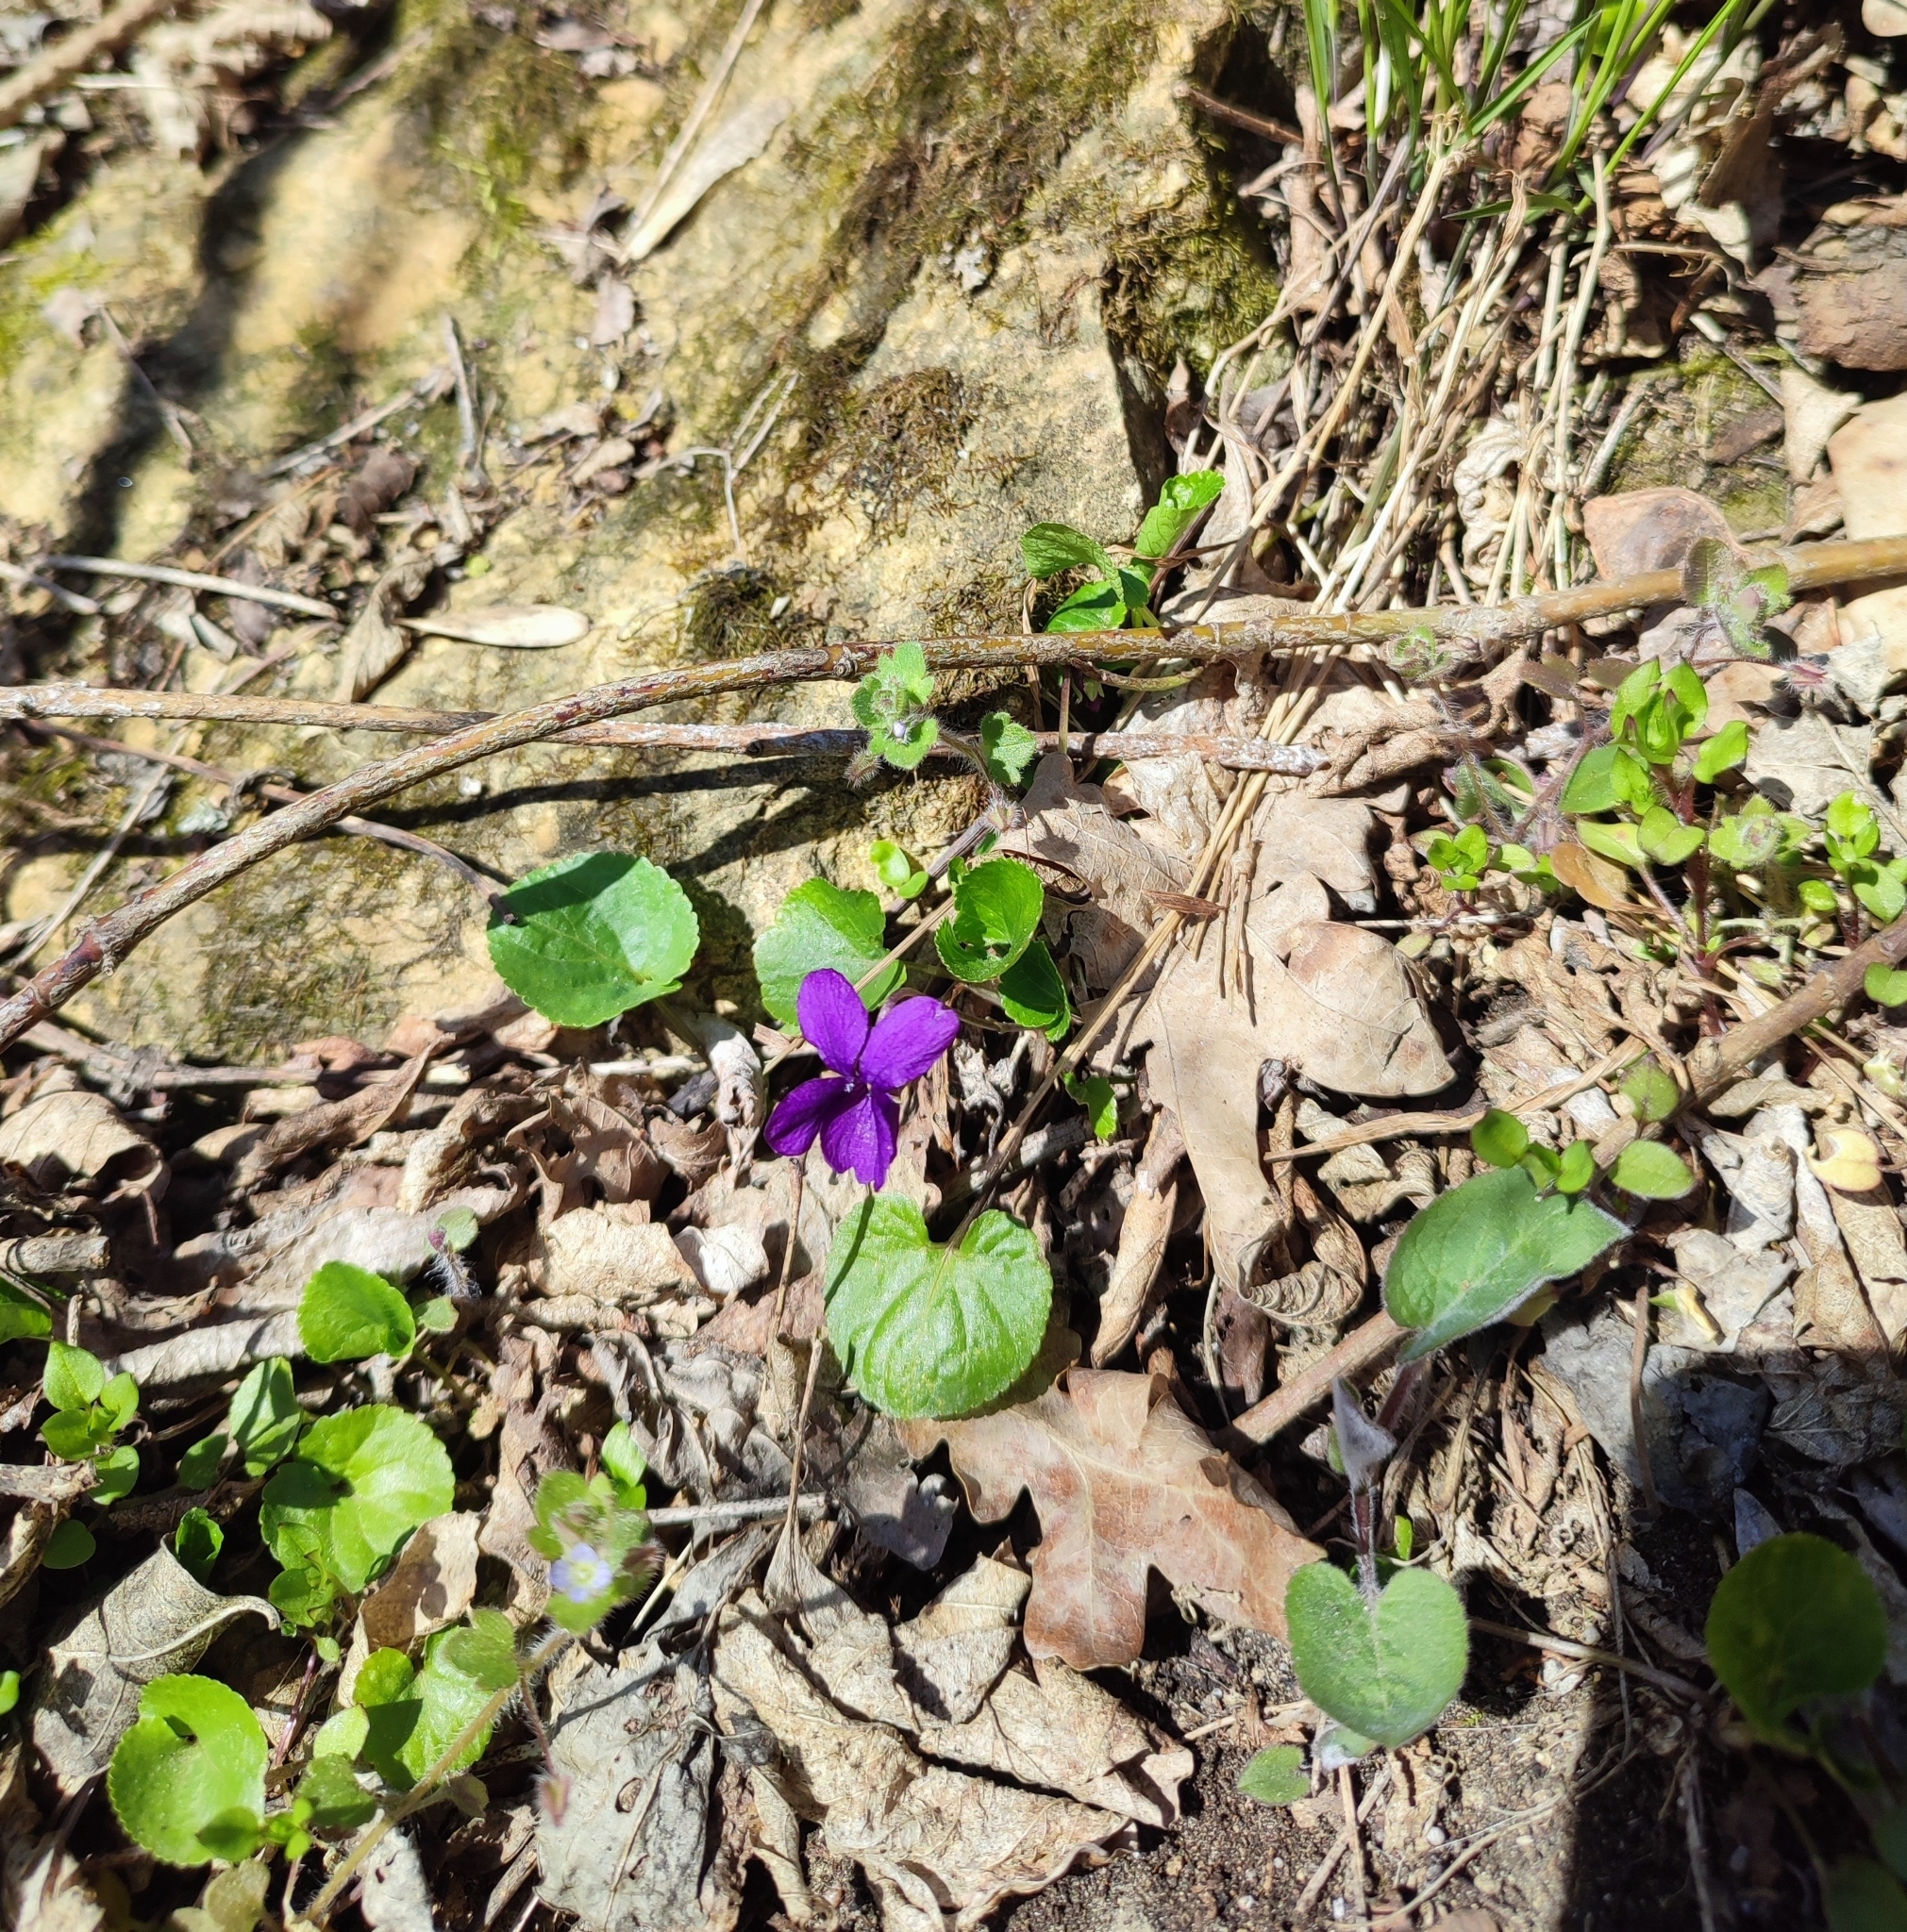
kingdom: Plantae
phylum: Tracheophyta
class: Magnoliopsida
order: Malpighiales
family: Violaceae
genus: Viola
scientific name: Viola odorata
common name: Sweet violet
